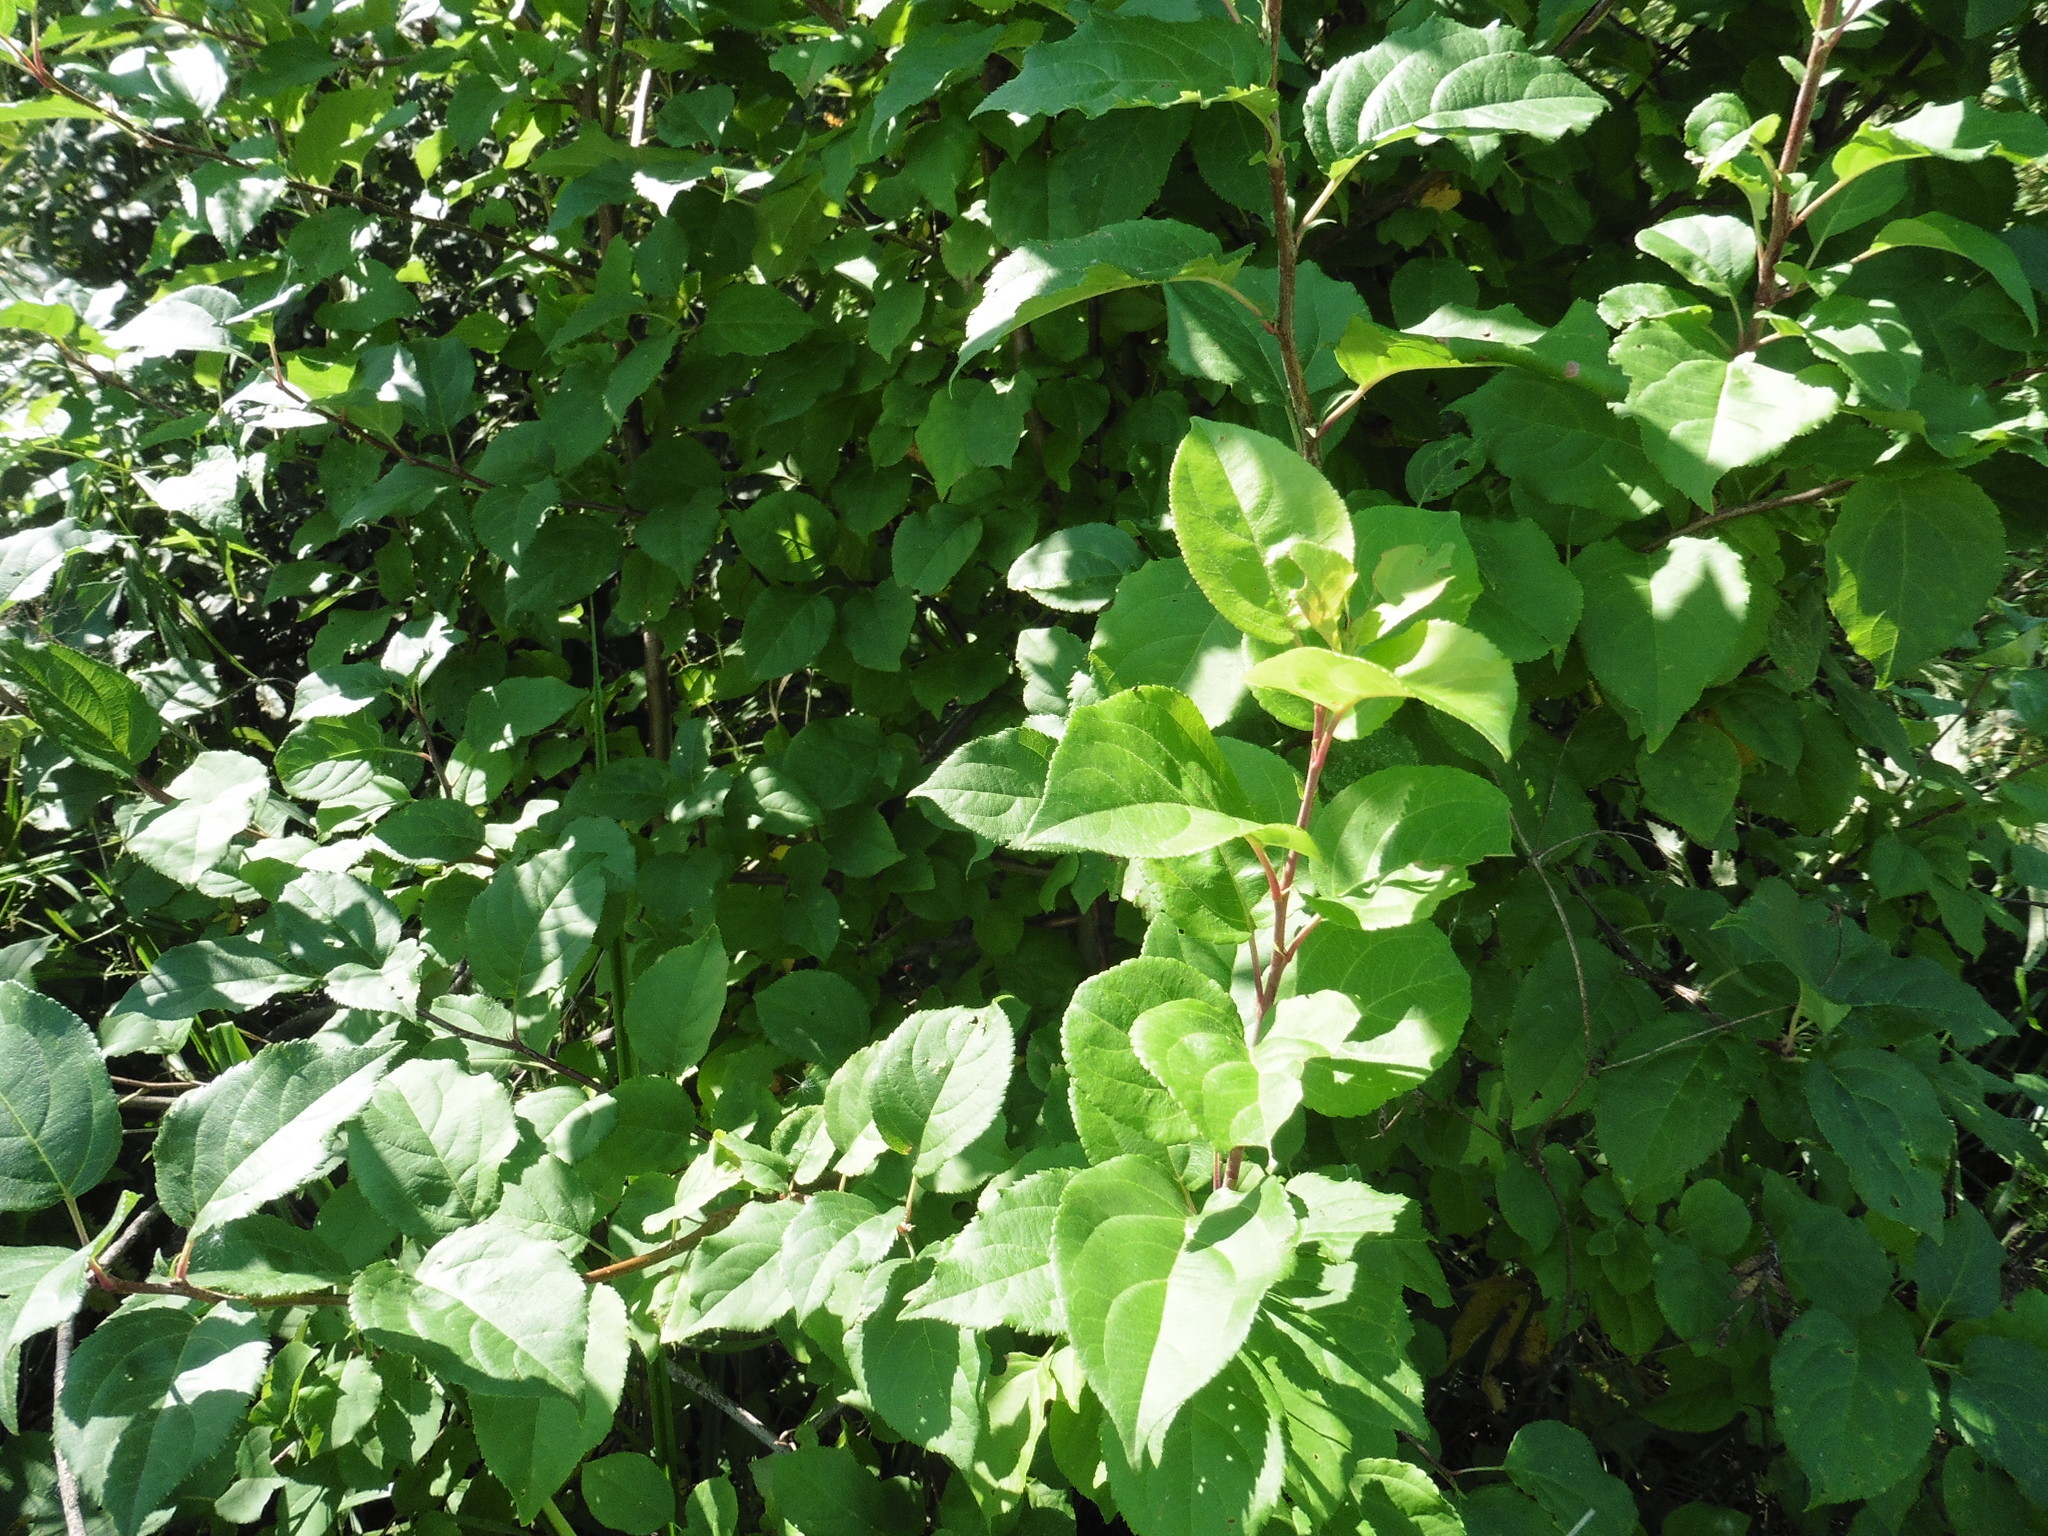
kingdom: Plantae
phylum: Tracheophyta
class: Magnoliopsida
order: Rosales
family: Rosaceae
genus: Malus
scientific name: Malus domestica
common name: Apple
